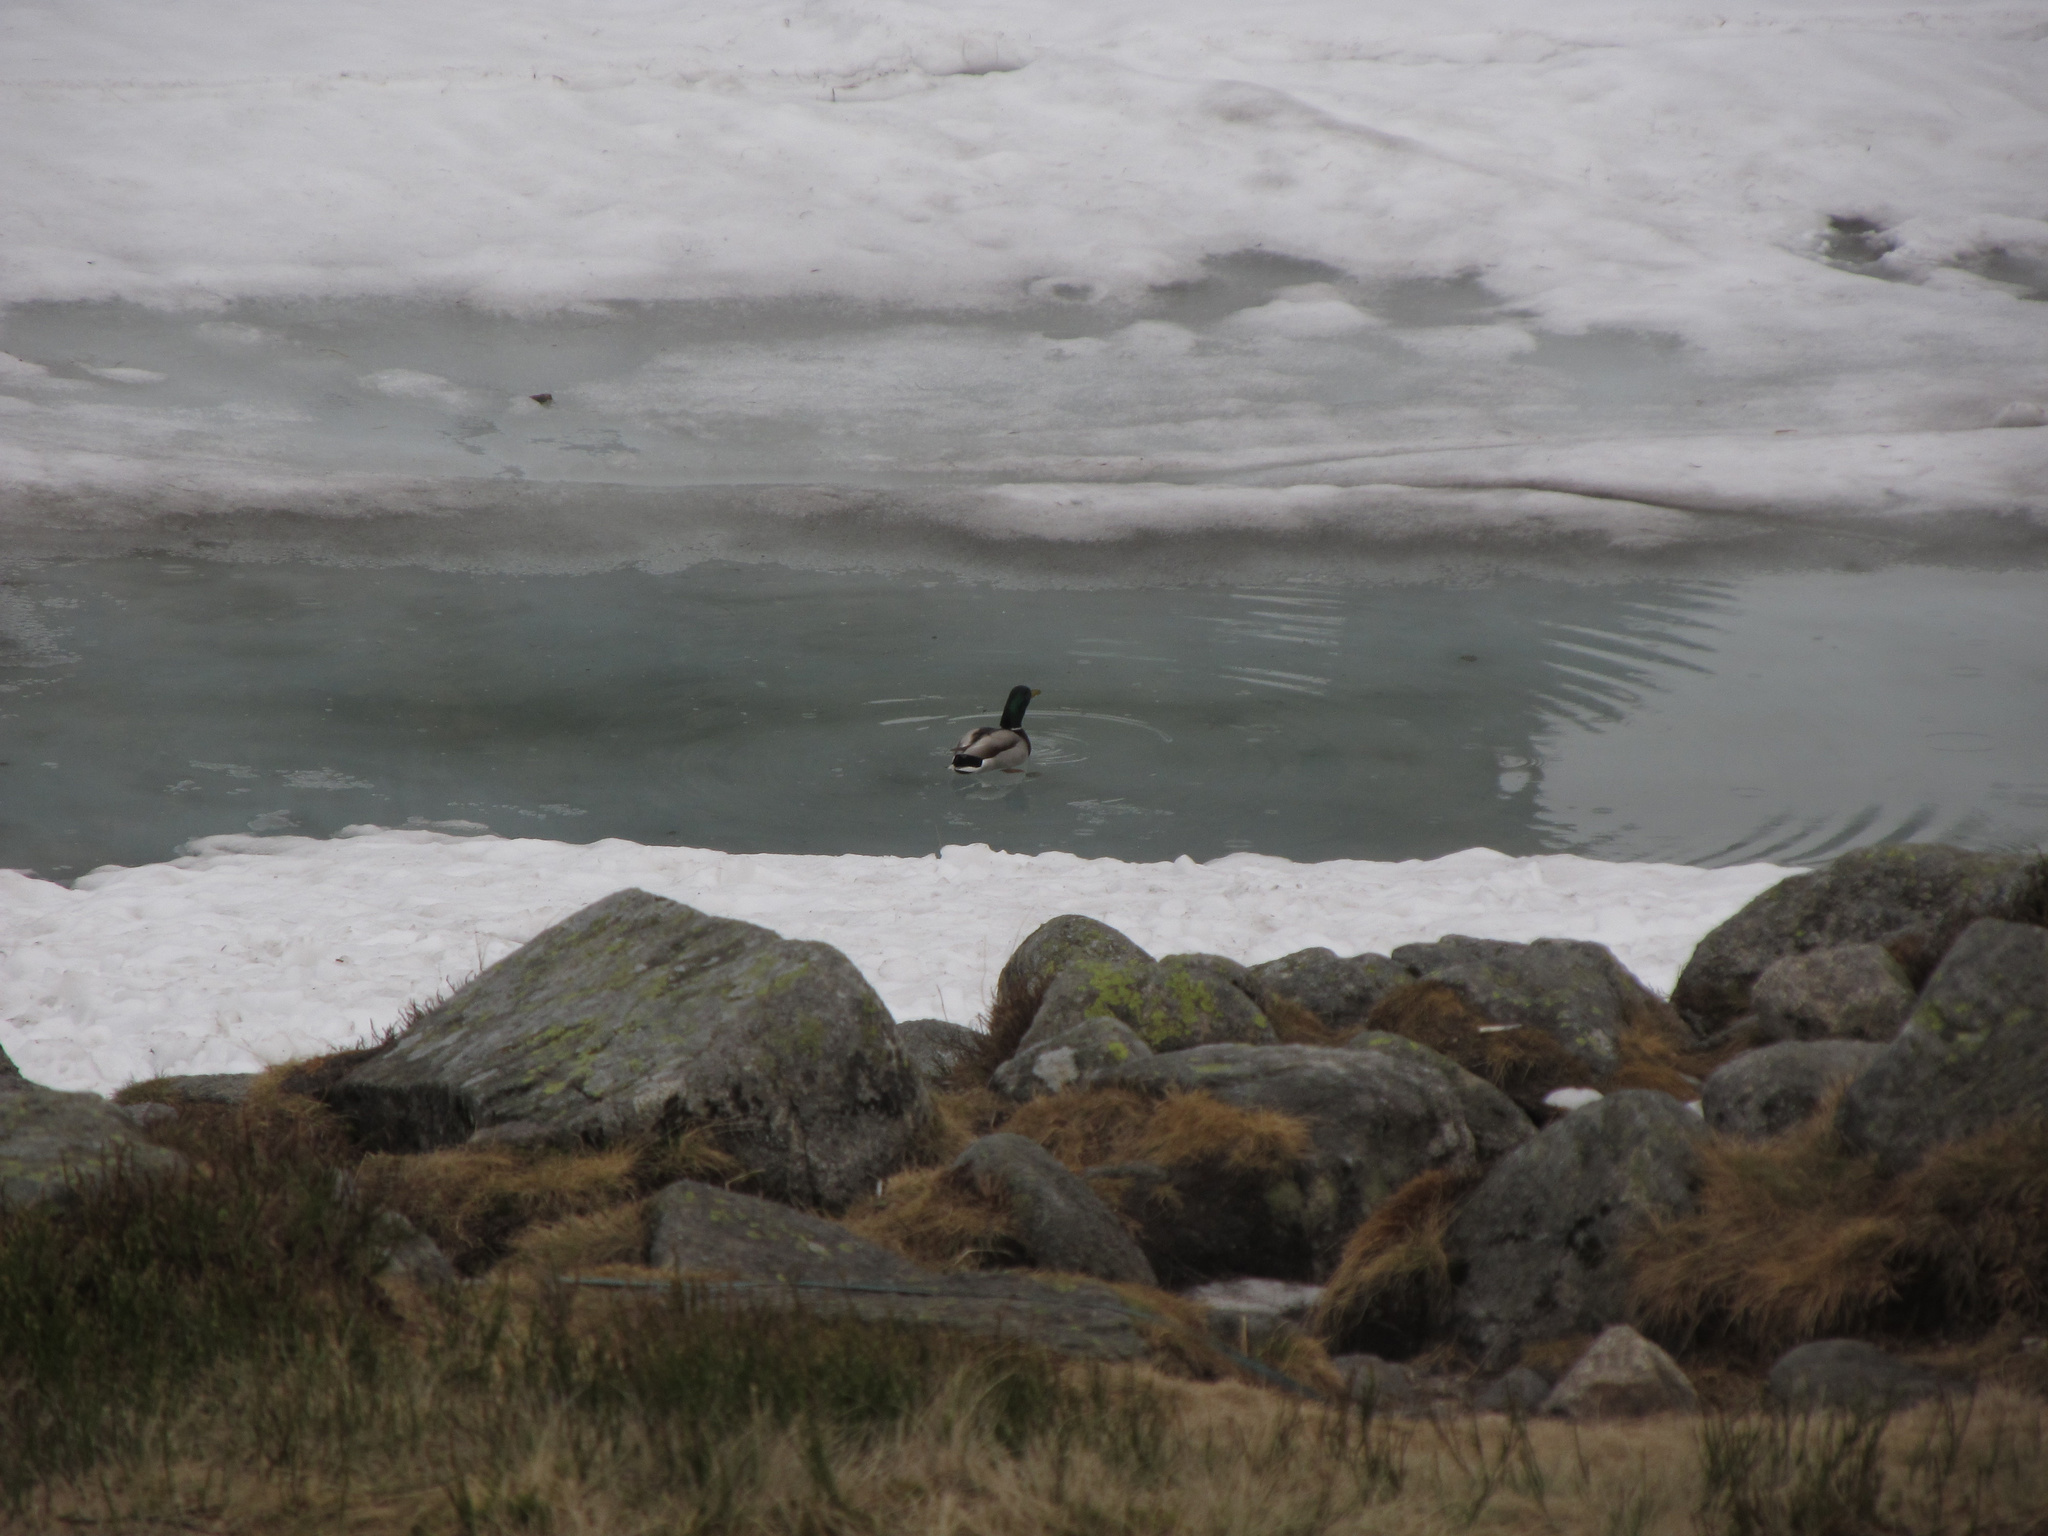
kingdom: Animalia
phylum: Chordata
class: Aves
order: Anseriformes
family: Anatidae
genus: Anas
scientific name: Anas platyrhynchos
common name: Mallard
